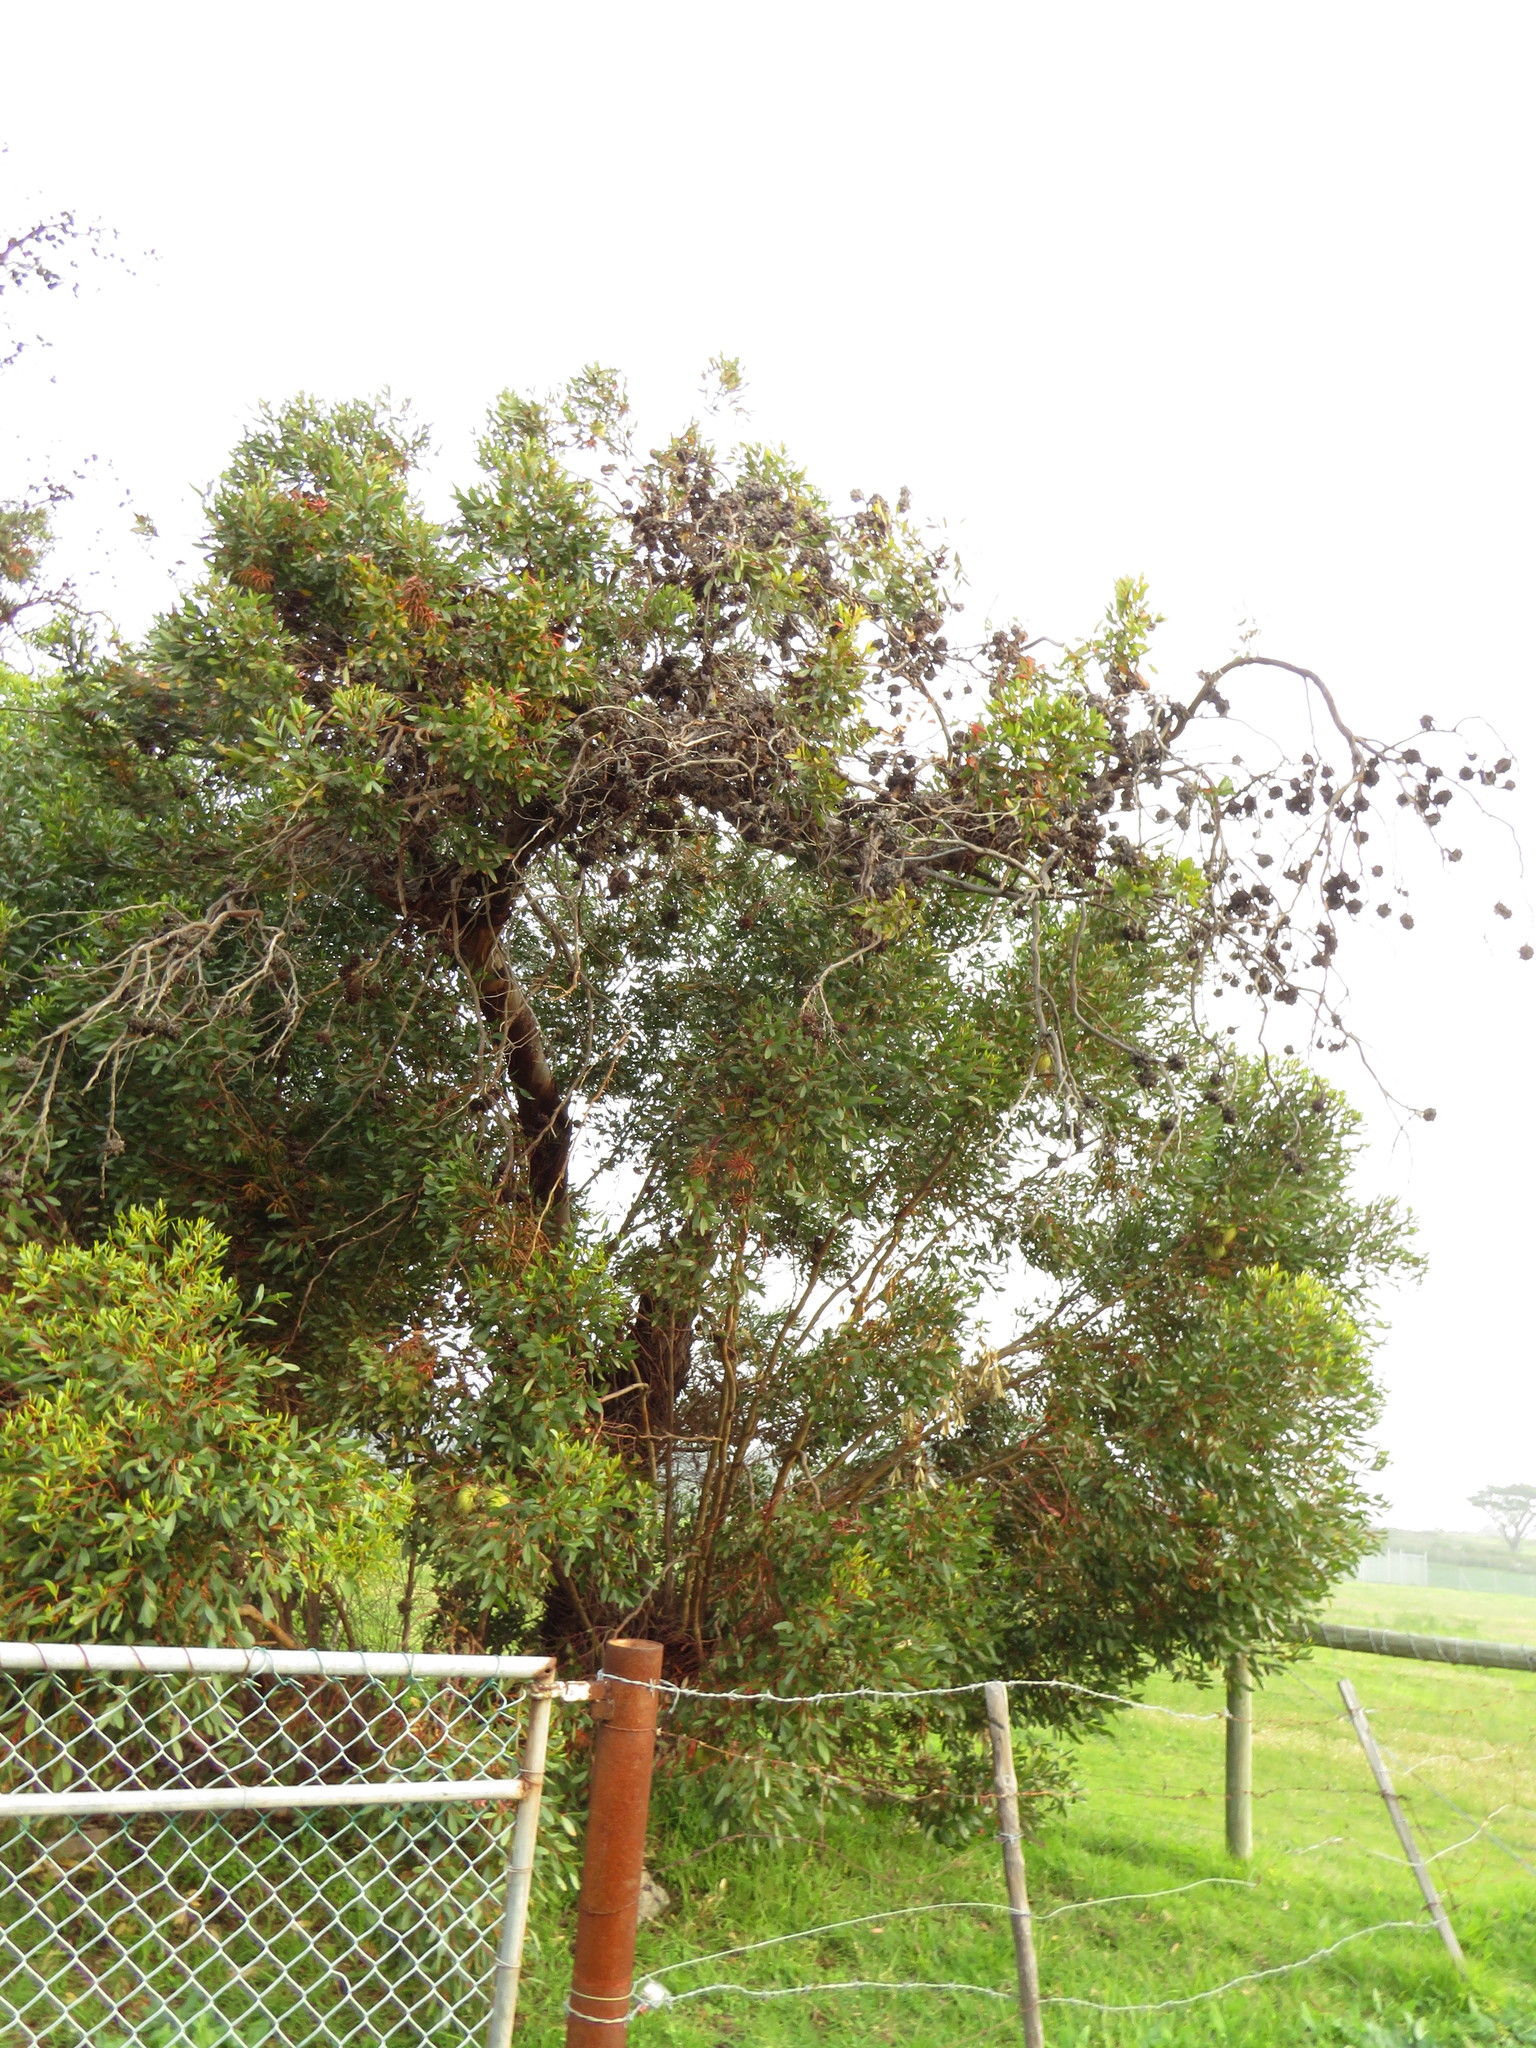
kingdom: Plantae
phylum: Tracheophyta
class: Magnoliopsida
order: Myrtales
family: Myrtaceae
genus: Eucalyptus
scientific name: Eucalyptus conferruminata
